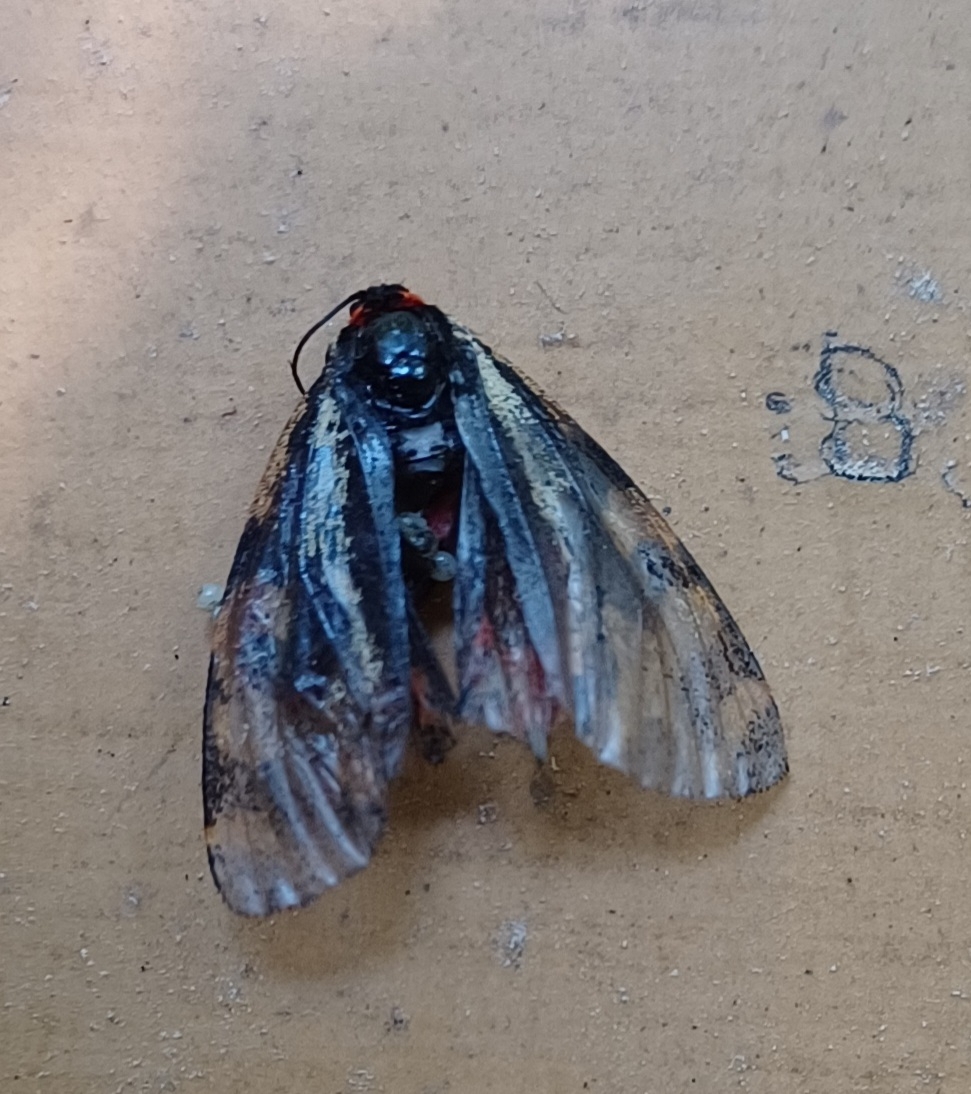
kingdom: Animalia
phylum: Arthropoda
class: Insecta
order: Lepidoptera
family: Erebidae
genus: Parasemia
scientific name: Parasemia plantaginis
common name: Wood tiger
